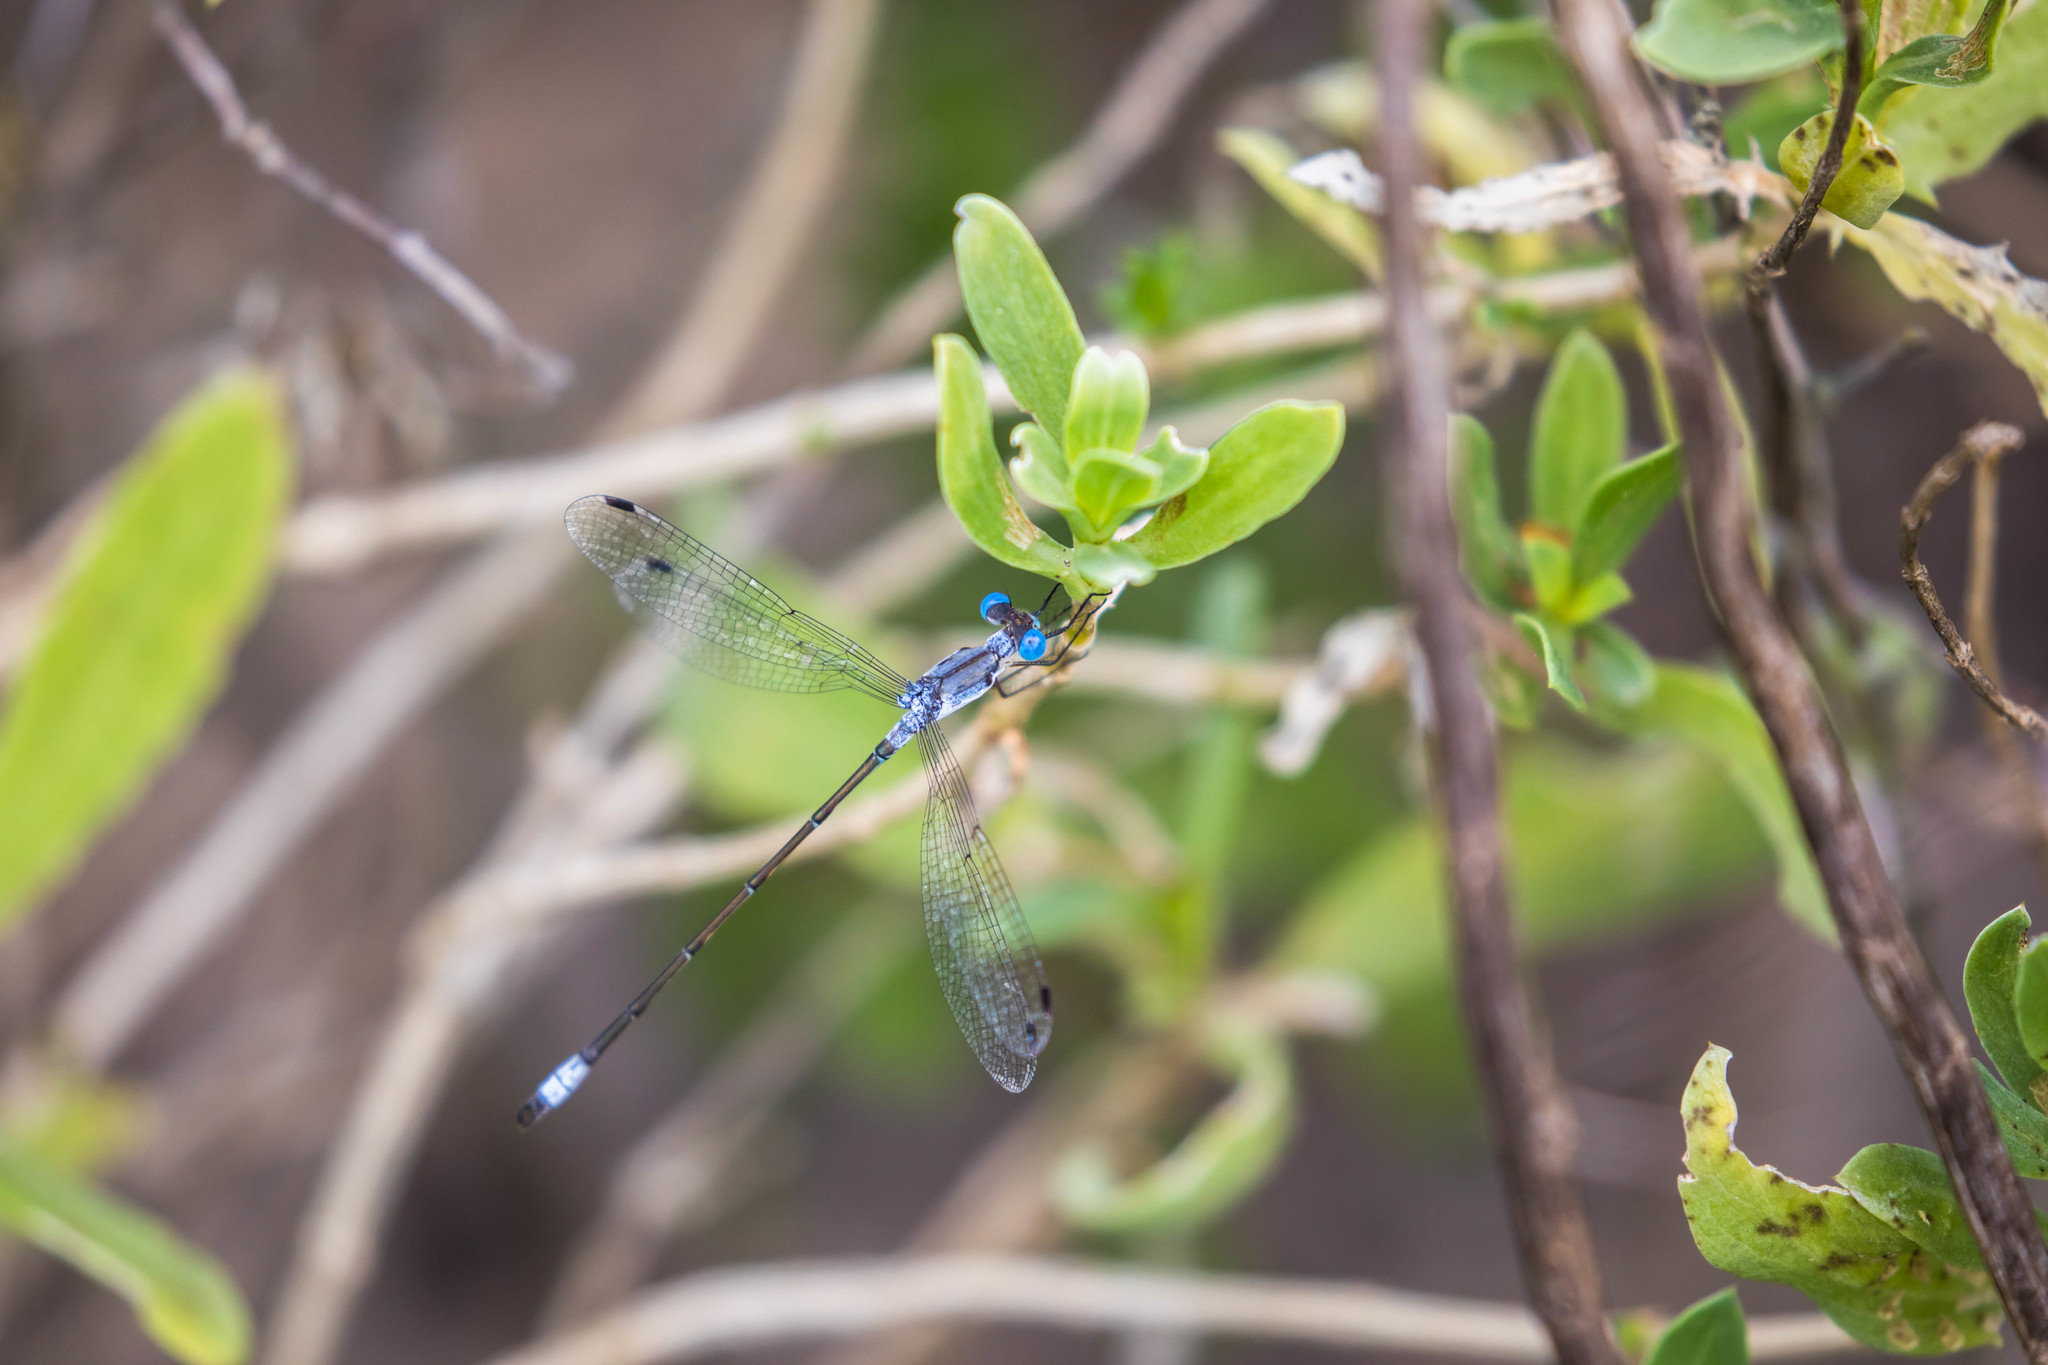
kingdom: Animalia
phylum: Arthropoda
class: Insecta
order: Odonata
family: Lestidae
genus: Lestes
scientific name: Lestes sigma
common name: Chalky spreadwing
